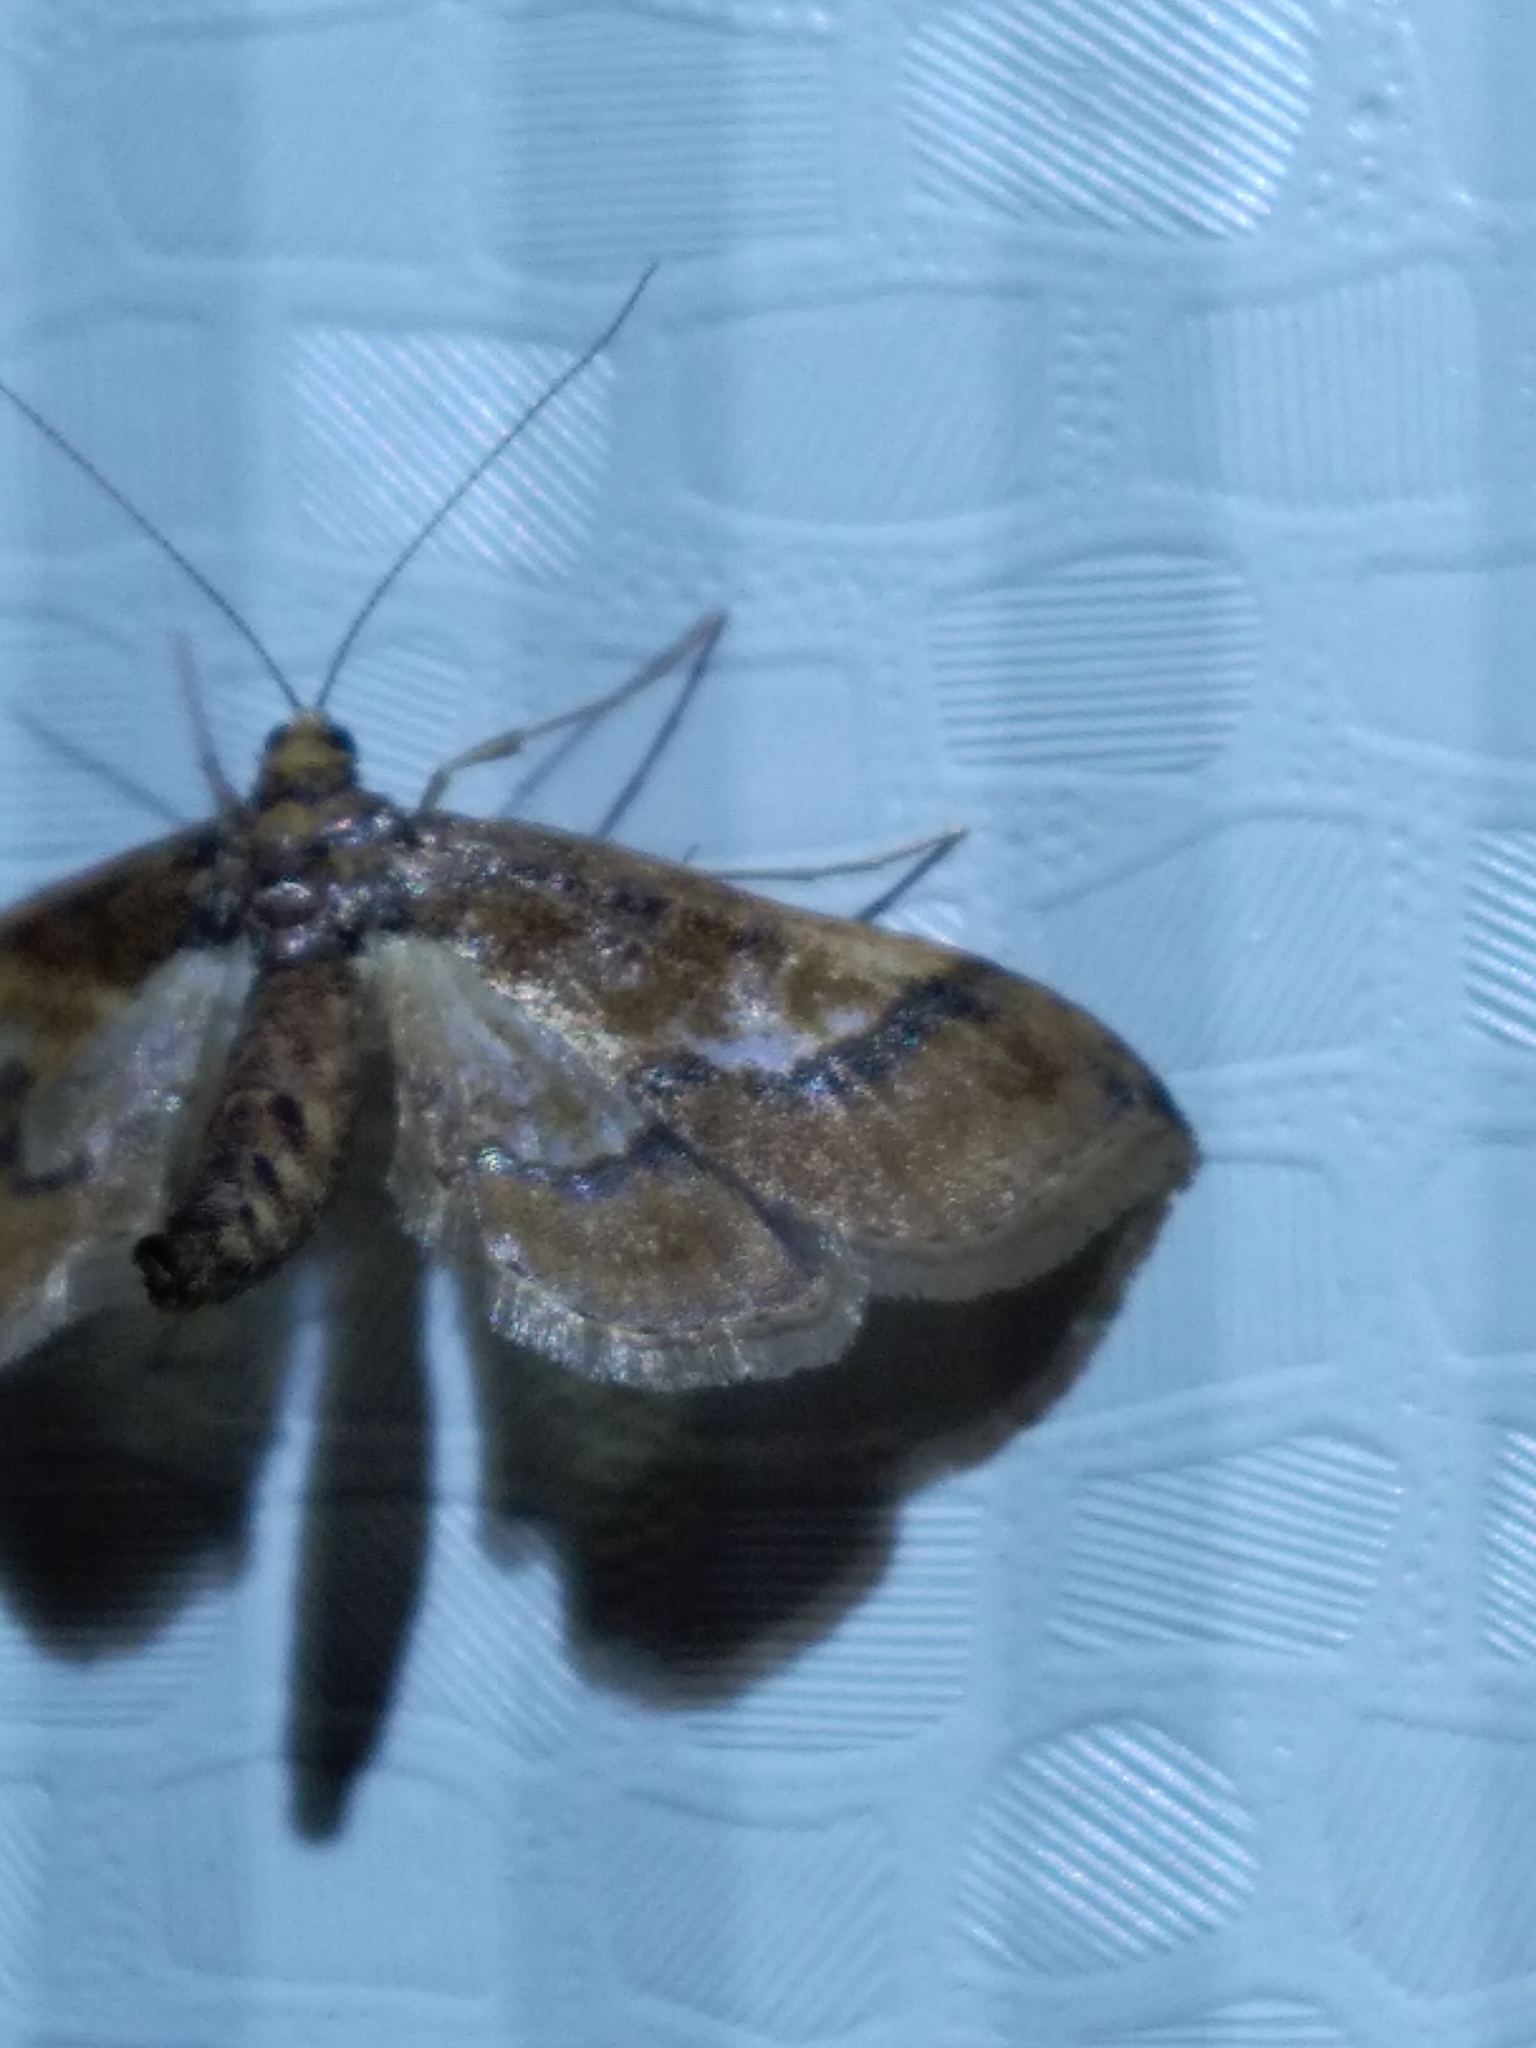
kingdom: Animalia
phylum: Arthropoda
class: Insecta
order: Lepidoptera
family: Crambidae
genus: Hydriris
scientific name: Hydriris ornatalis
